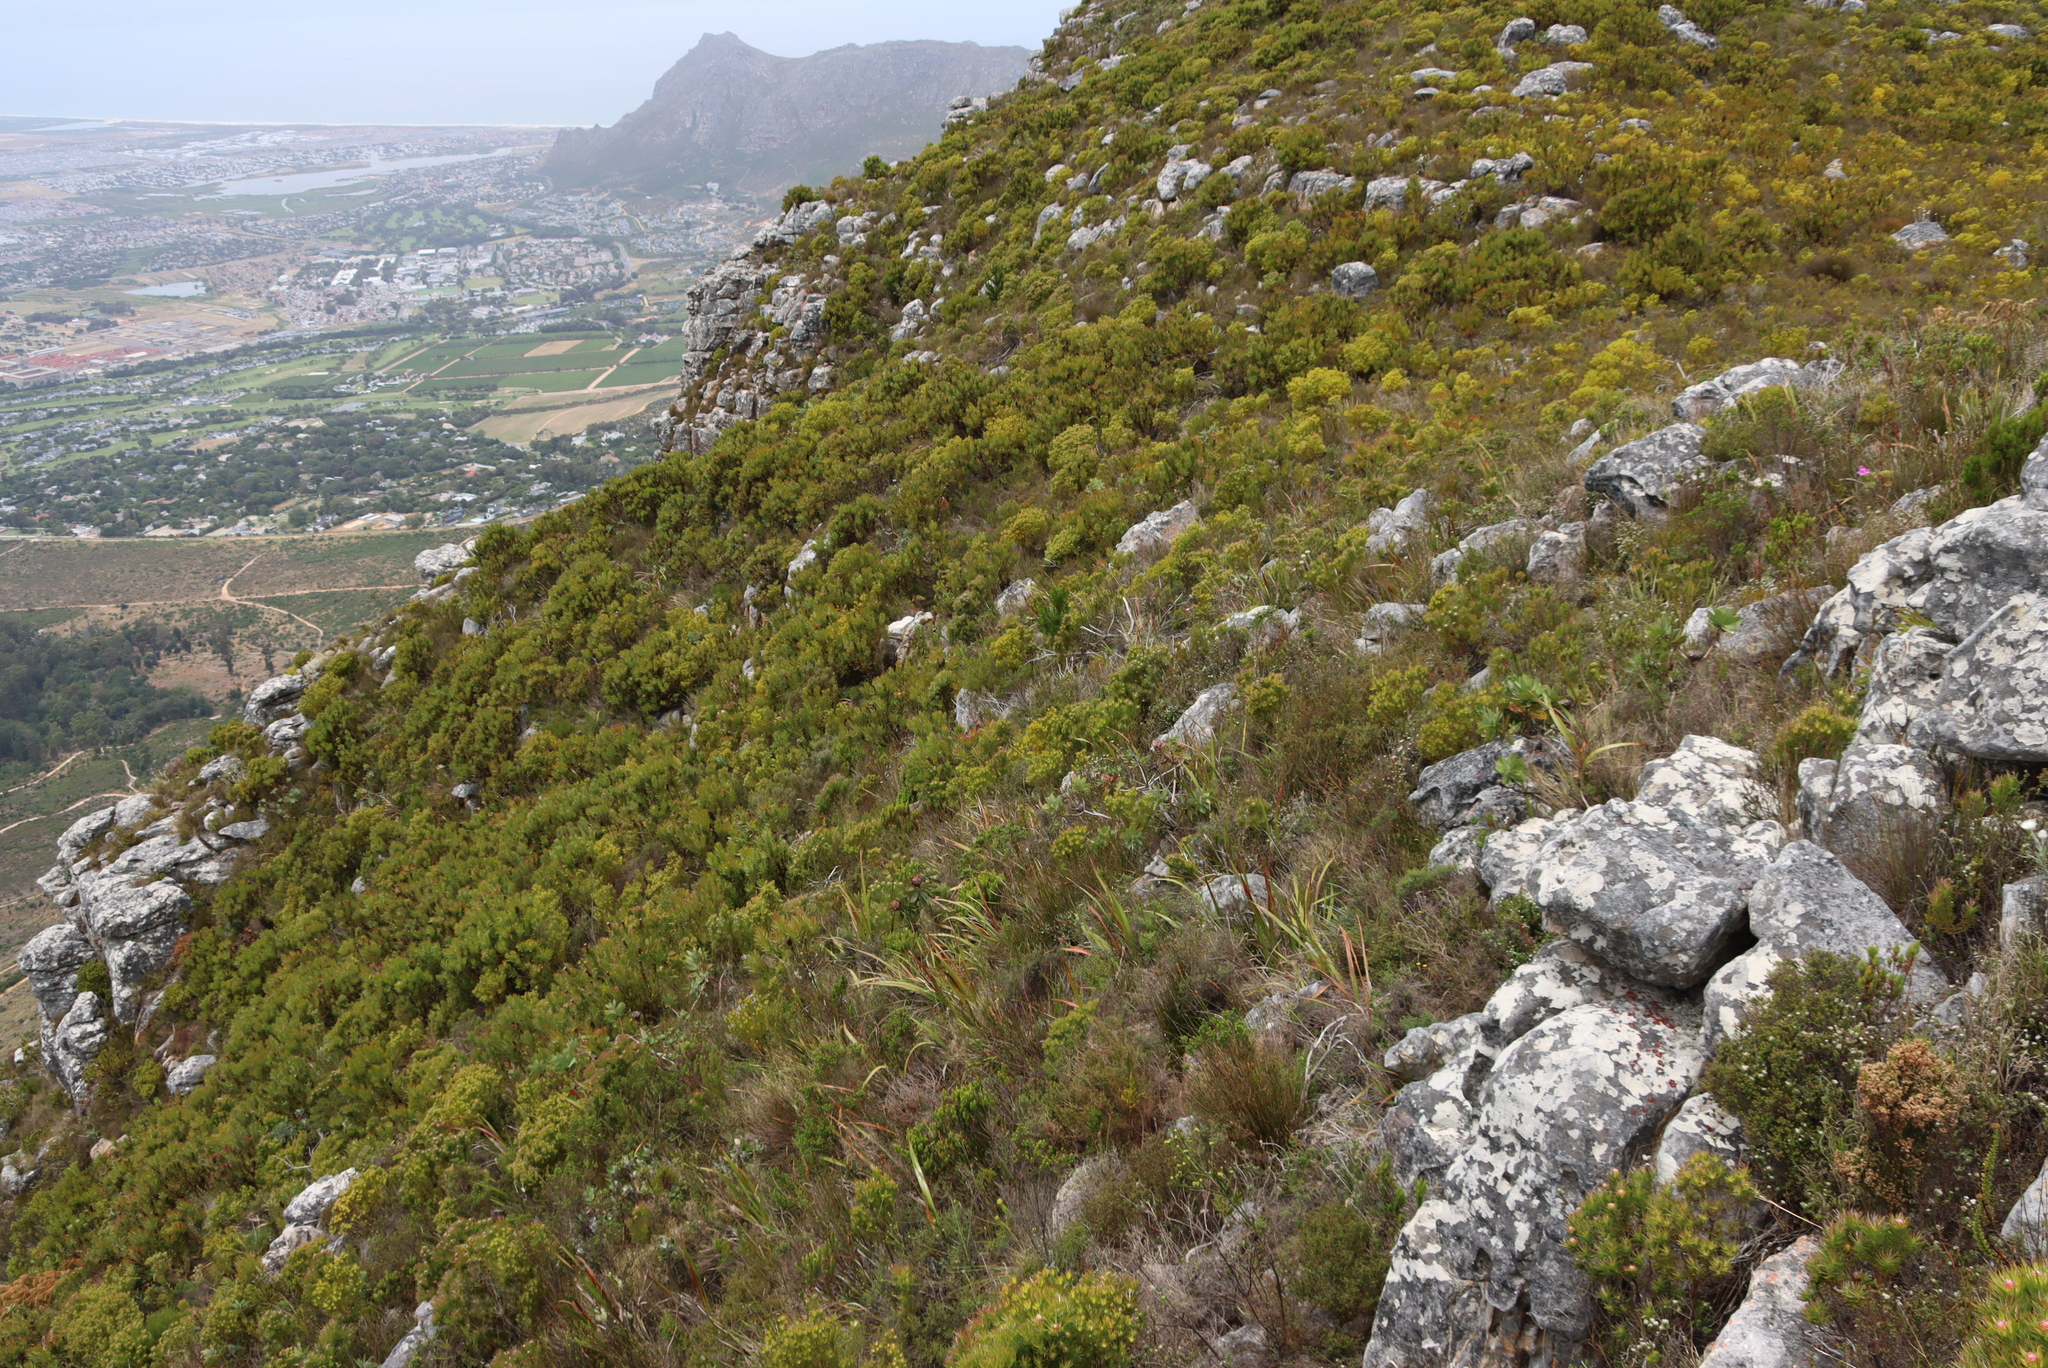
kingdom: Plantae
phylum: Tracheophyta
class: Magnoliopsida
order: Proteales
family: Proteaceae
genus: Protea
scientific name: Protea lepidocarpodendron
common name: Black-bearded protea
